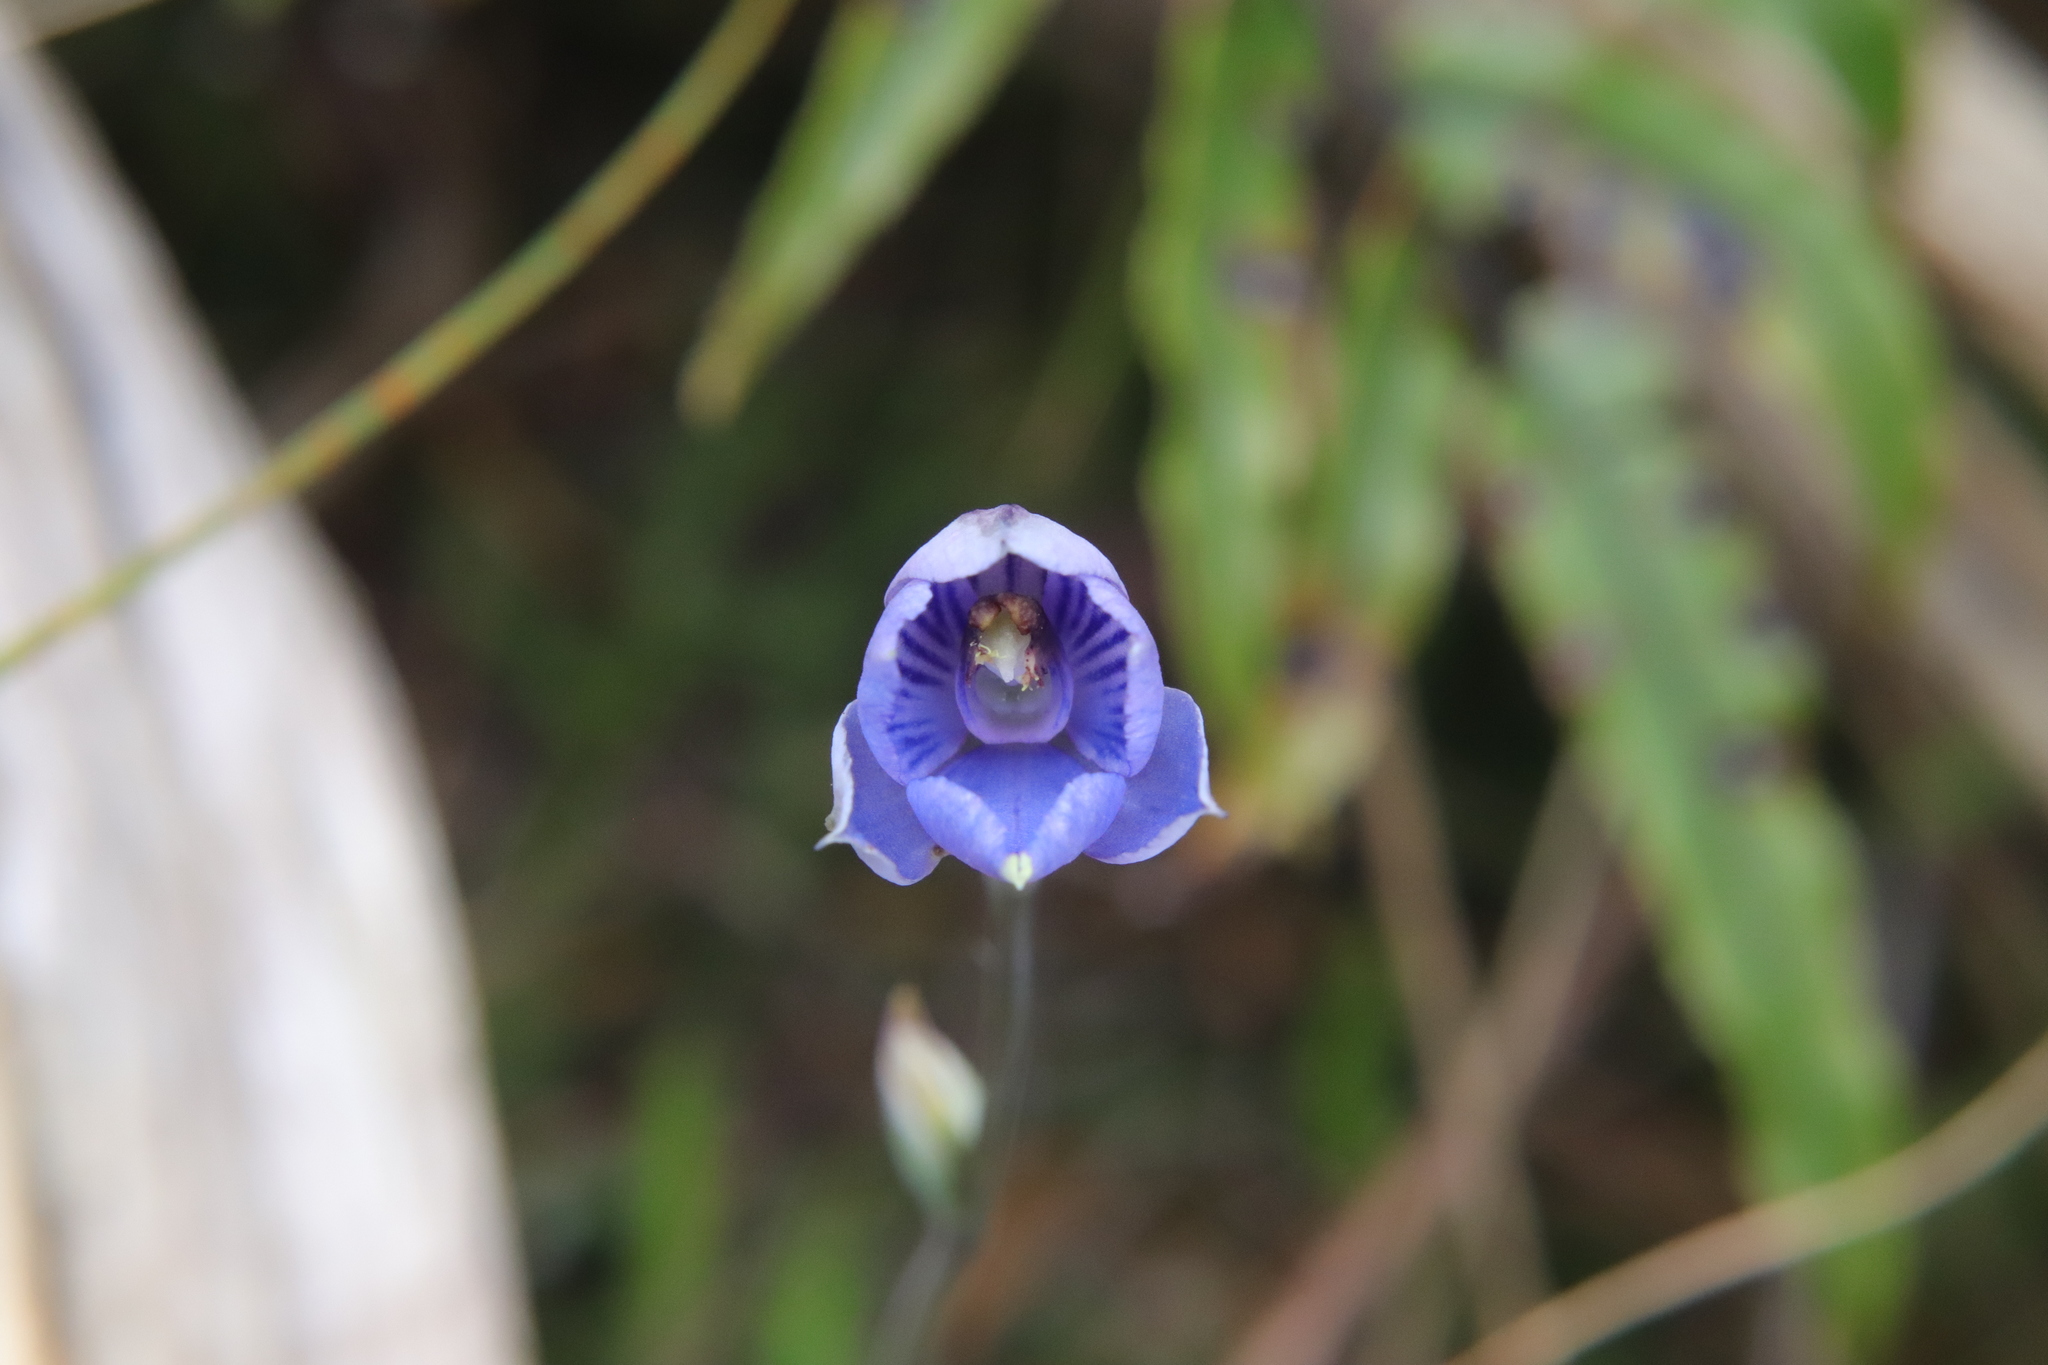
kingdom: Plantae
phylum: Tracheophyta
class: Liliopsida
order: Asparagales
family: Orchidaceae
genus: Thelymitra
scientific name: Thelymitra pulchella
